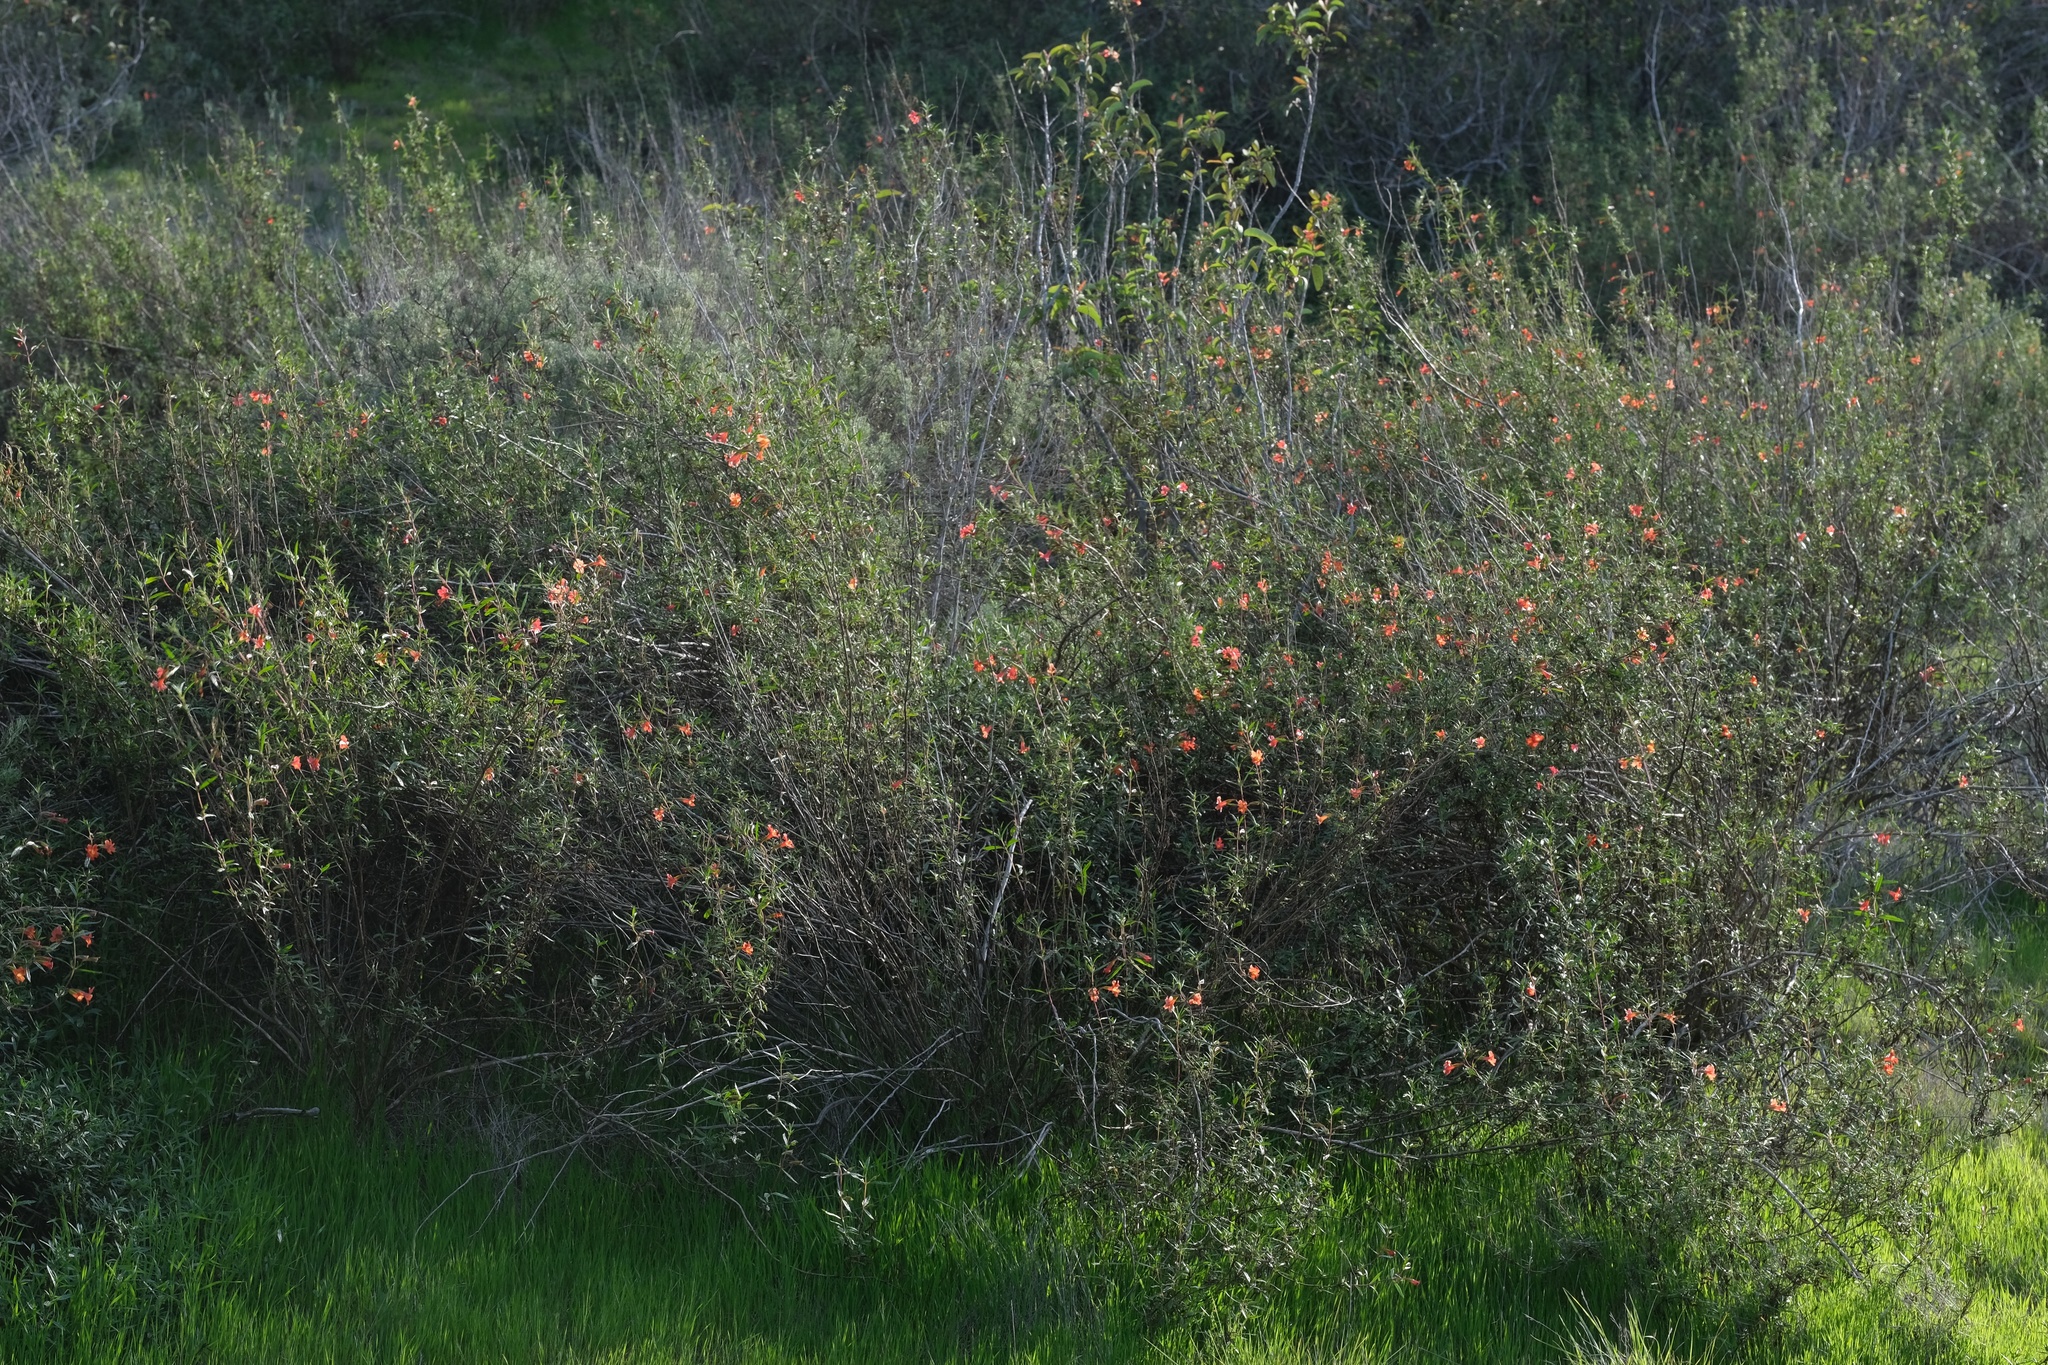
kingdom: Plantae
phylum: Tracheophyta
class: Magnoliopsida
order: Lamiales
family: Phrymaceae
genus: Diplacus
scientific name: Diplacus puniceus
